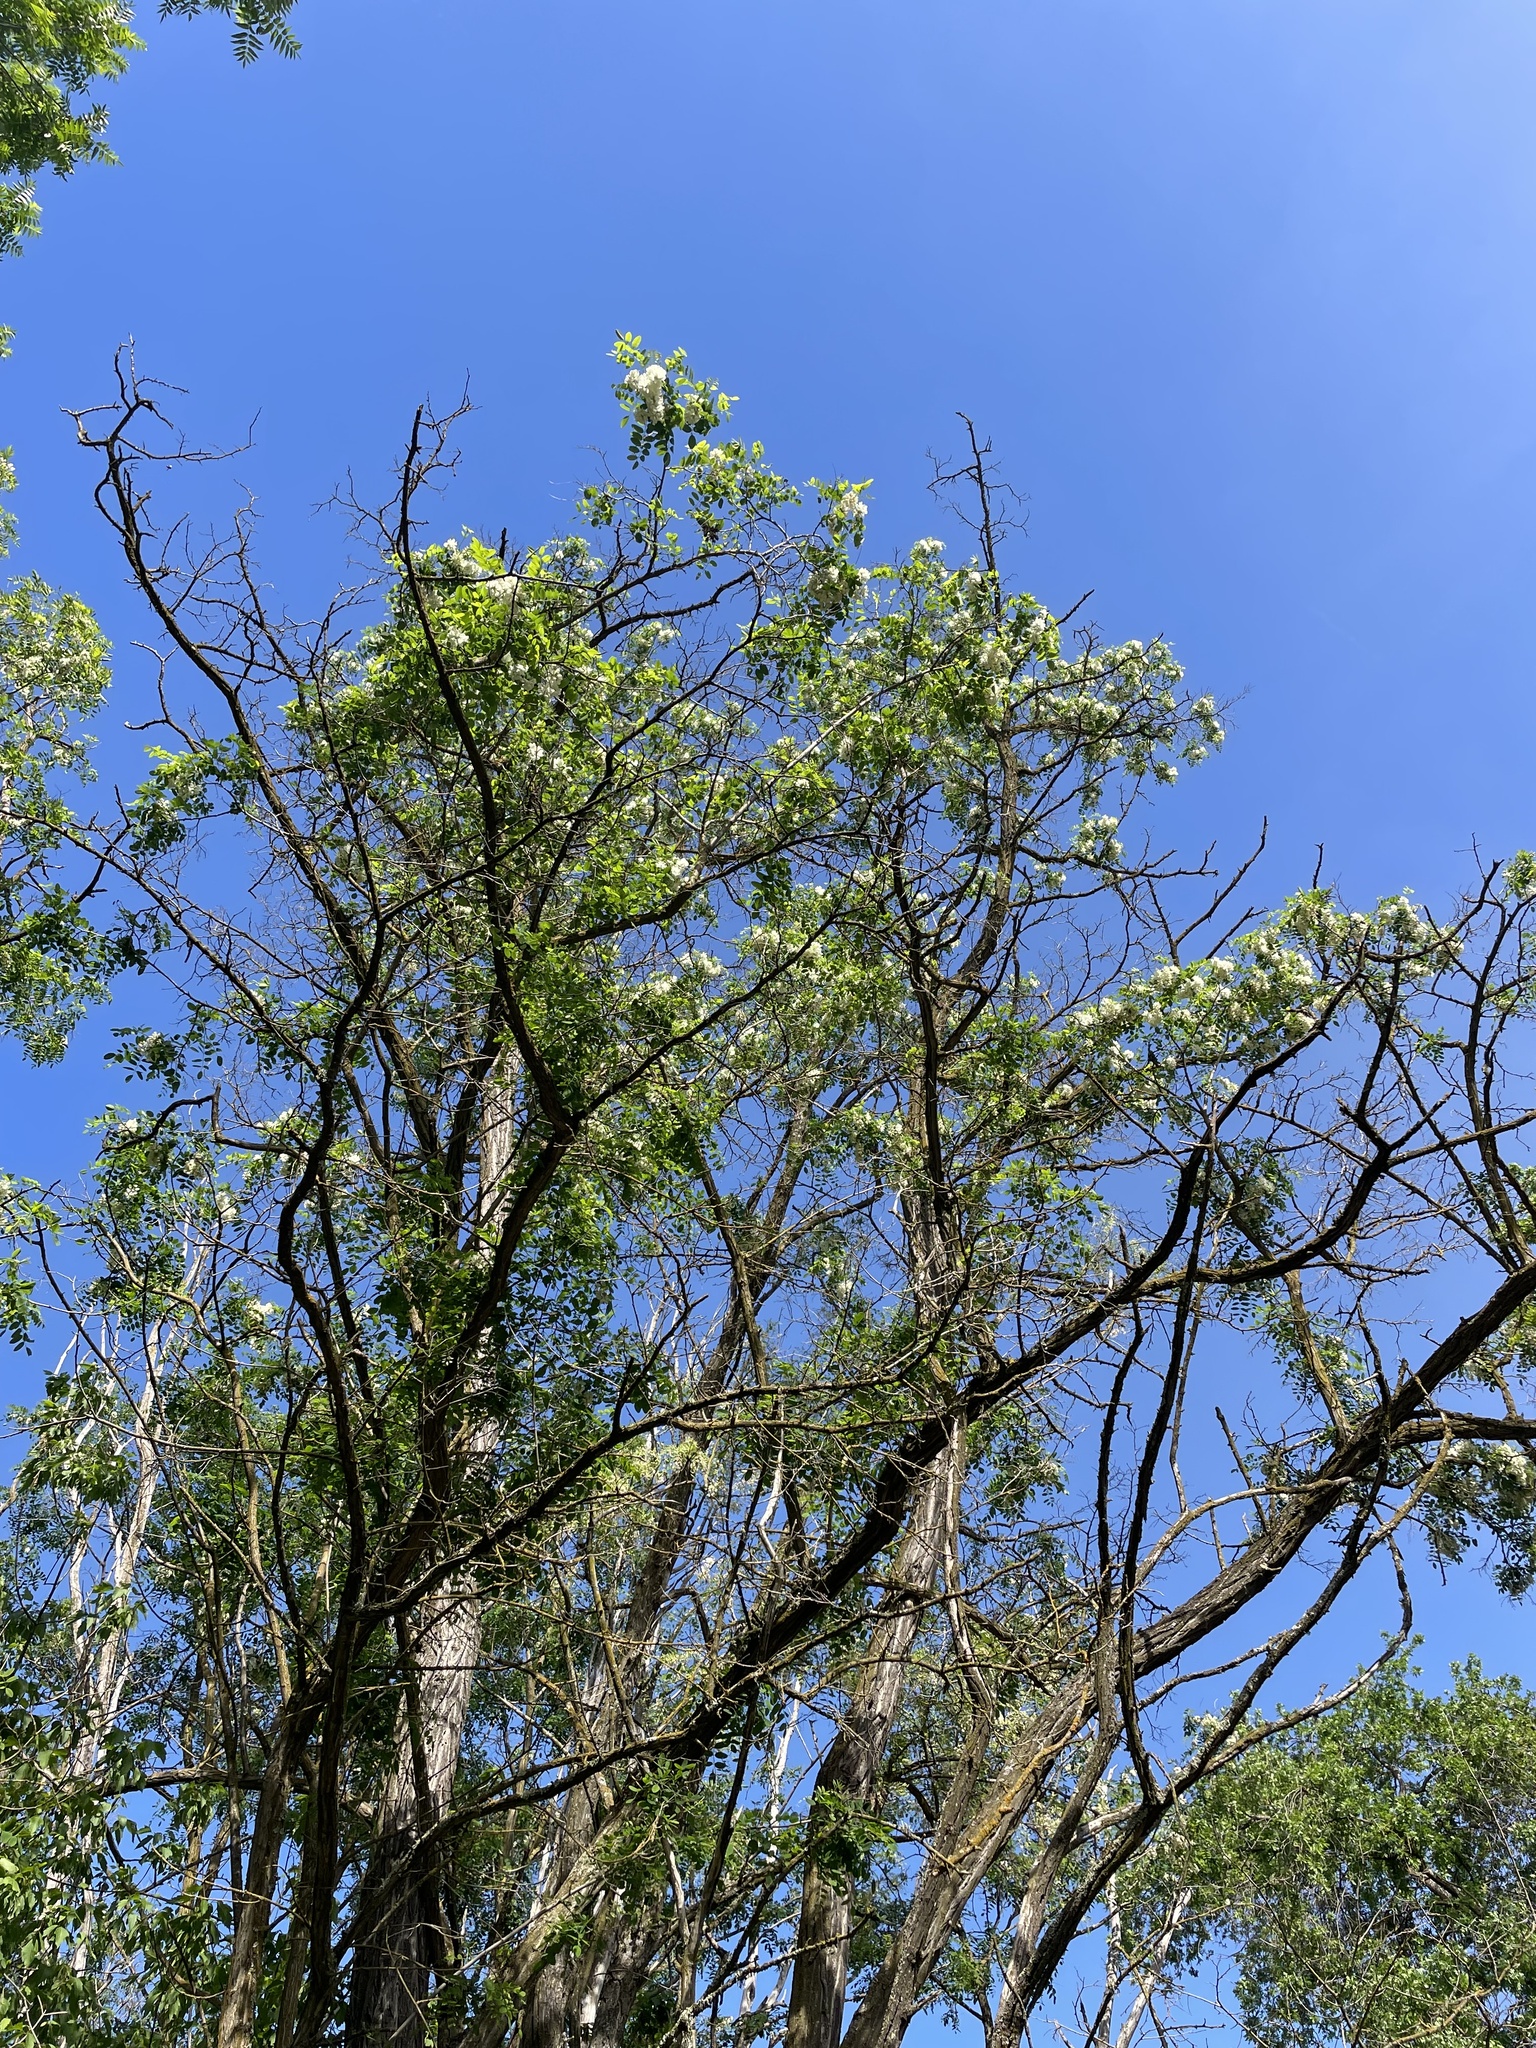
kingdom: Plantae
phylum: Tracheophyta
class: Magnoliopsida
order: Fabales
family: Fabaceae
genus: Robinia
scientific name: Robinia pseudoacacia
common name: Black locust
